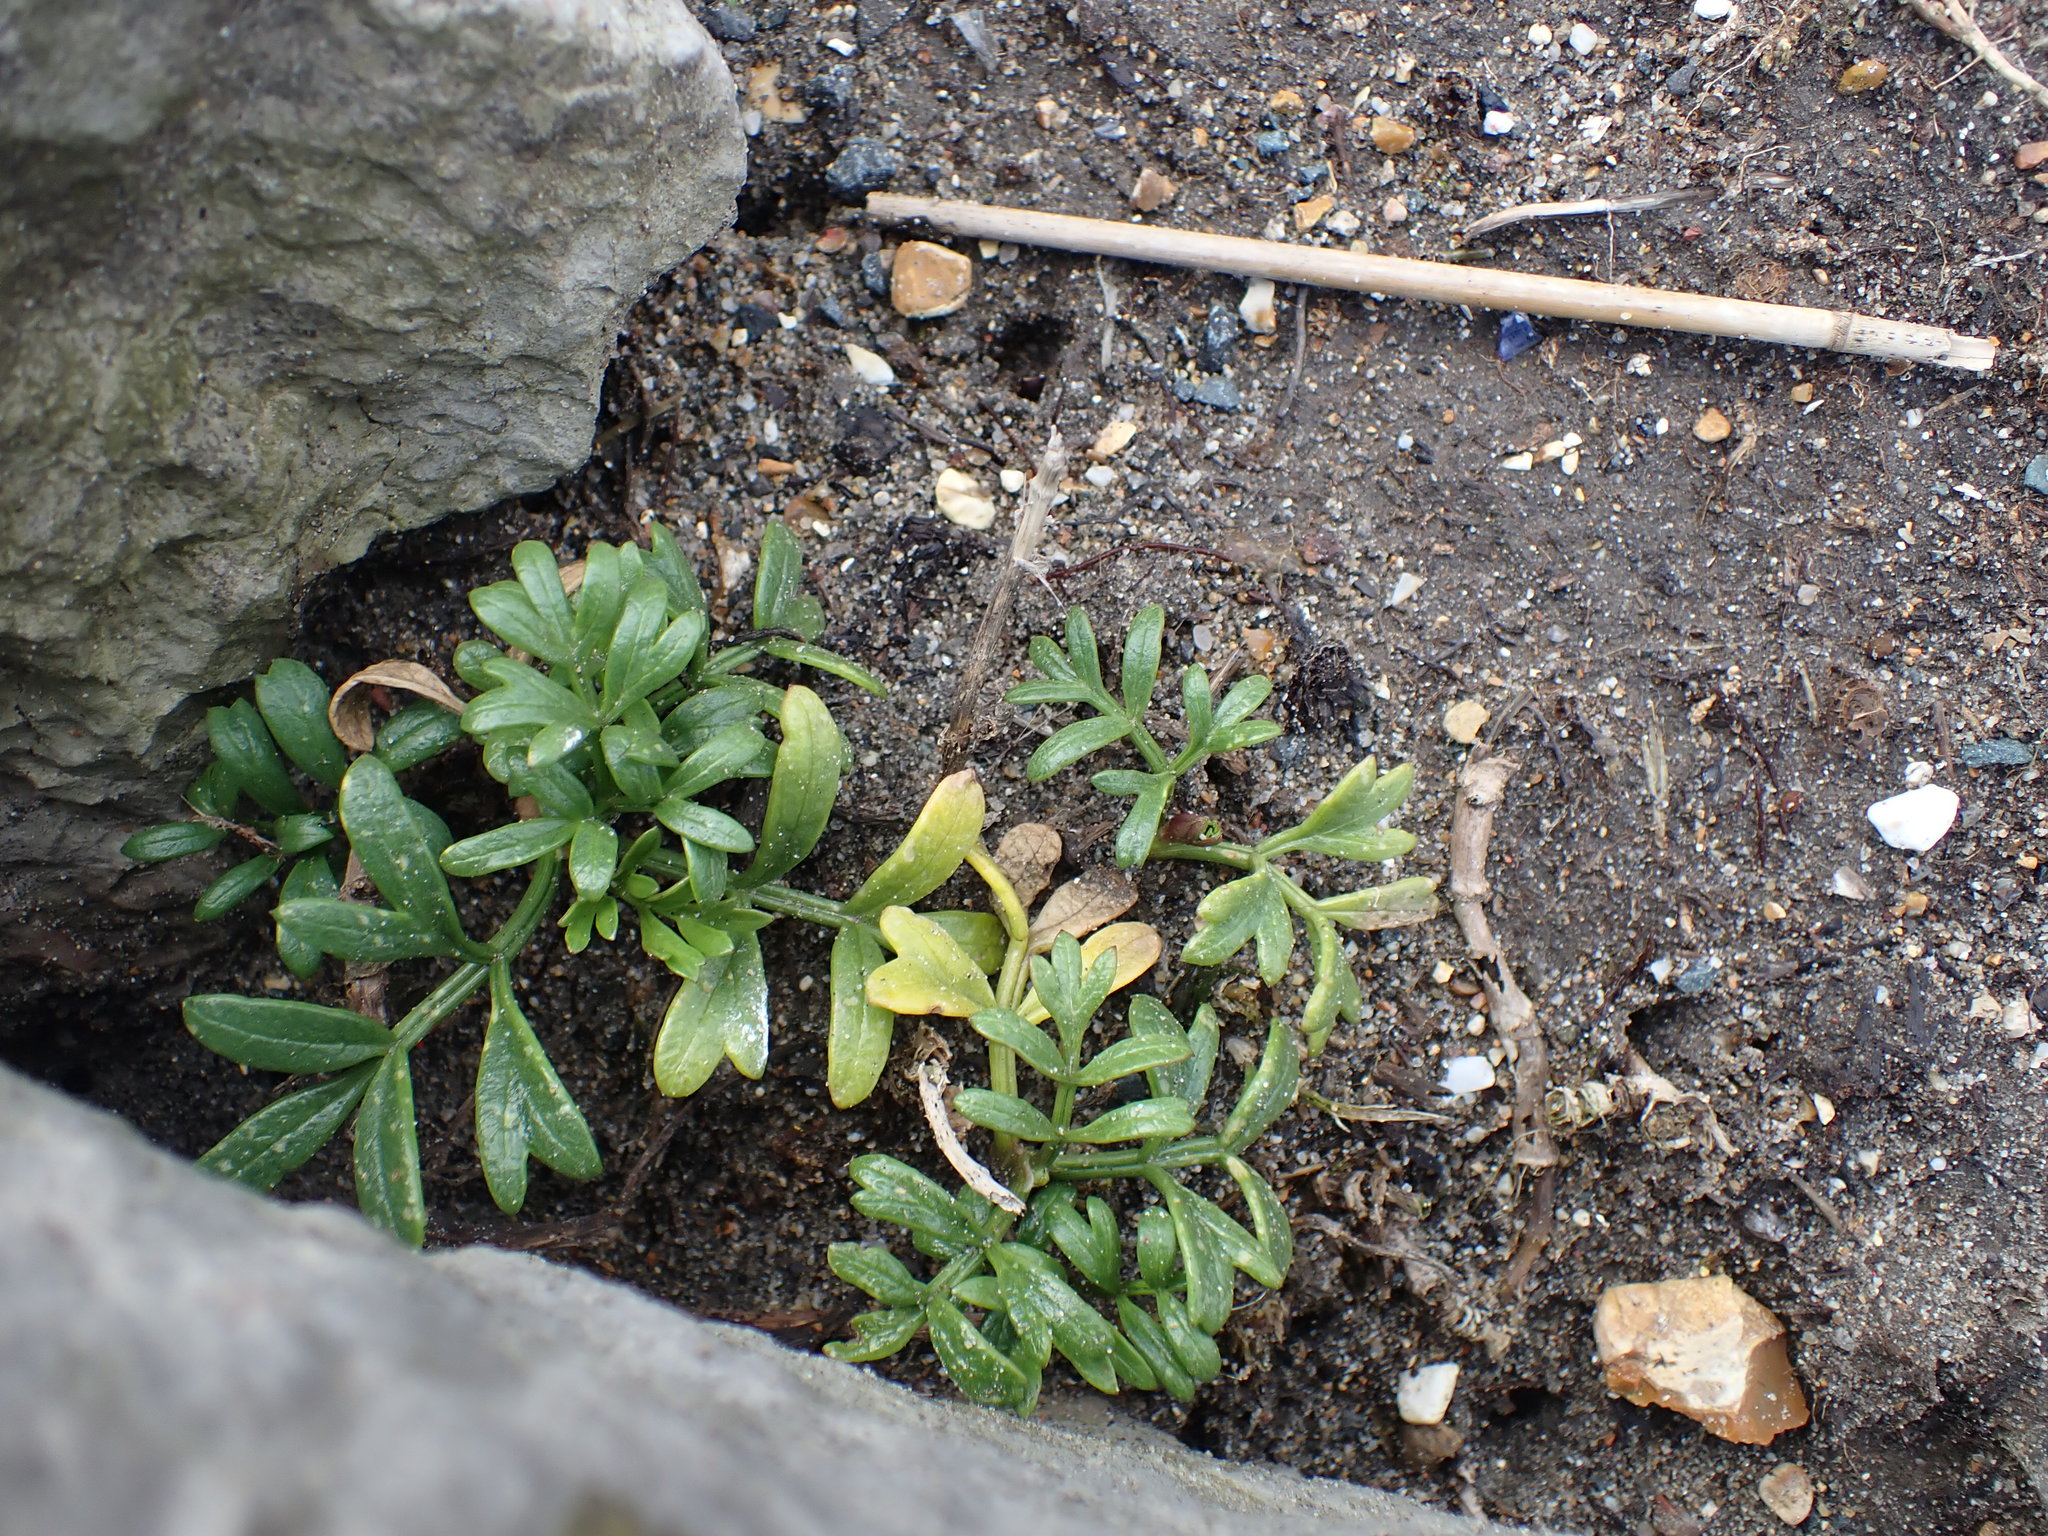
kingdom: Plantae
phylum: Tracheophyta
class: Magnoliopsida
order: Apiales
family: Apiaceae
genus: Crithmum
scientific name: Crithmum maritimum
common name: Rock samphire
